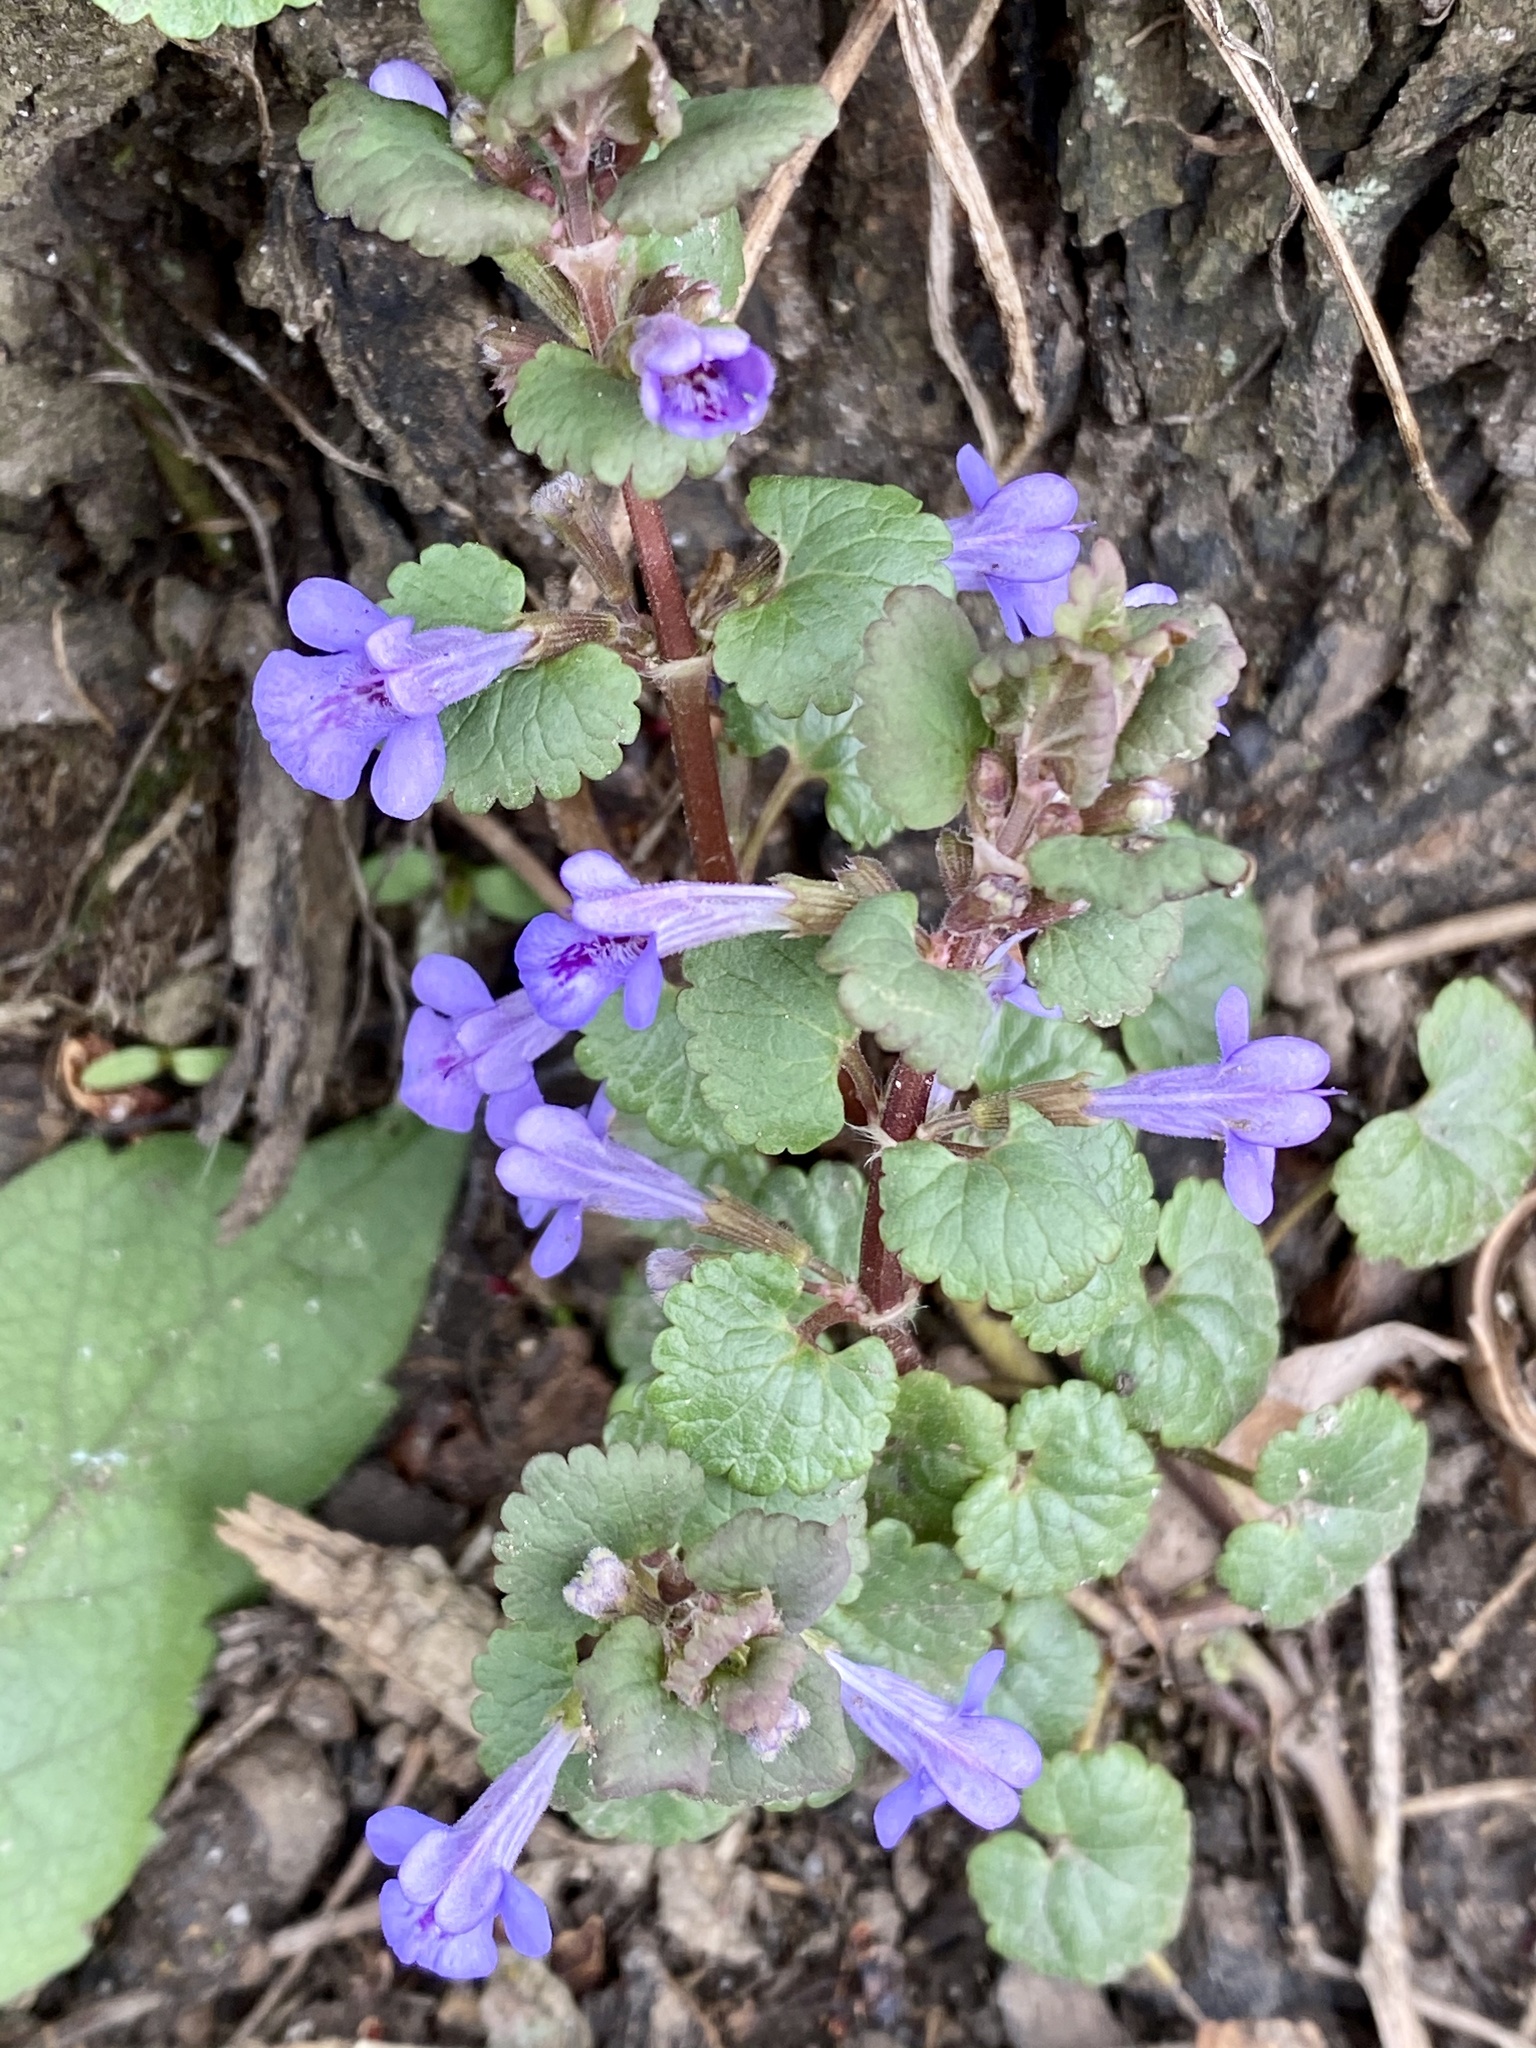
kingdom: Plantae
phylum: Tracheophyta
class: Magnoliopsida
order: Lamiales
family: Lamiaceae
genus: Glechoma
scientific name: Glechoma hederacea
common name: Ground ivy
